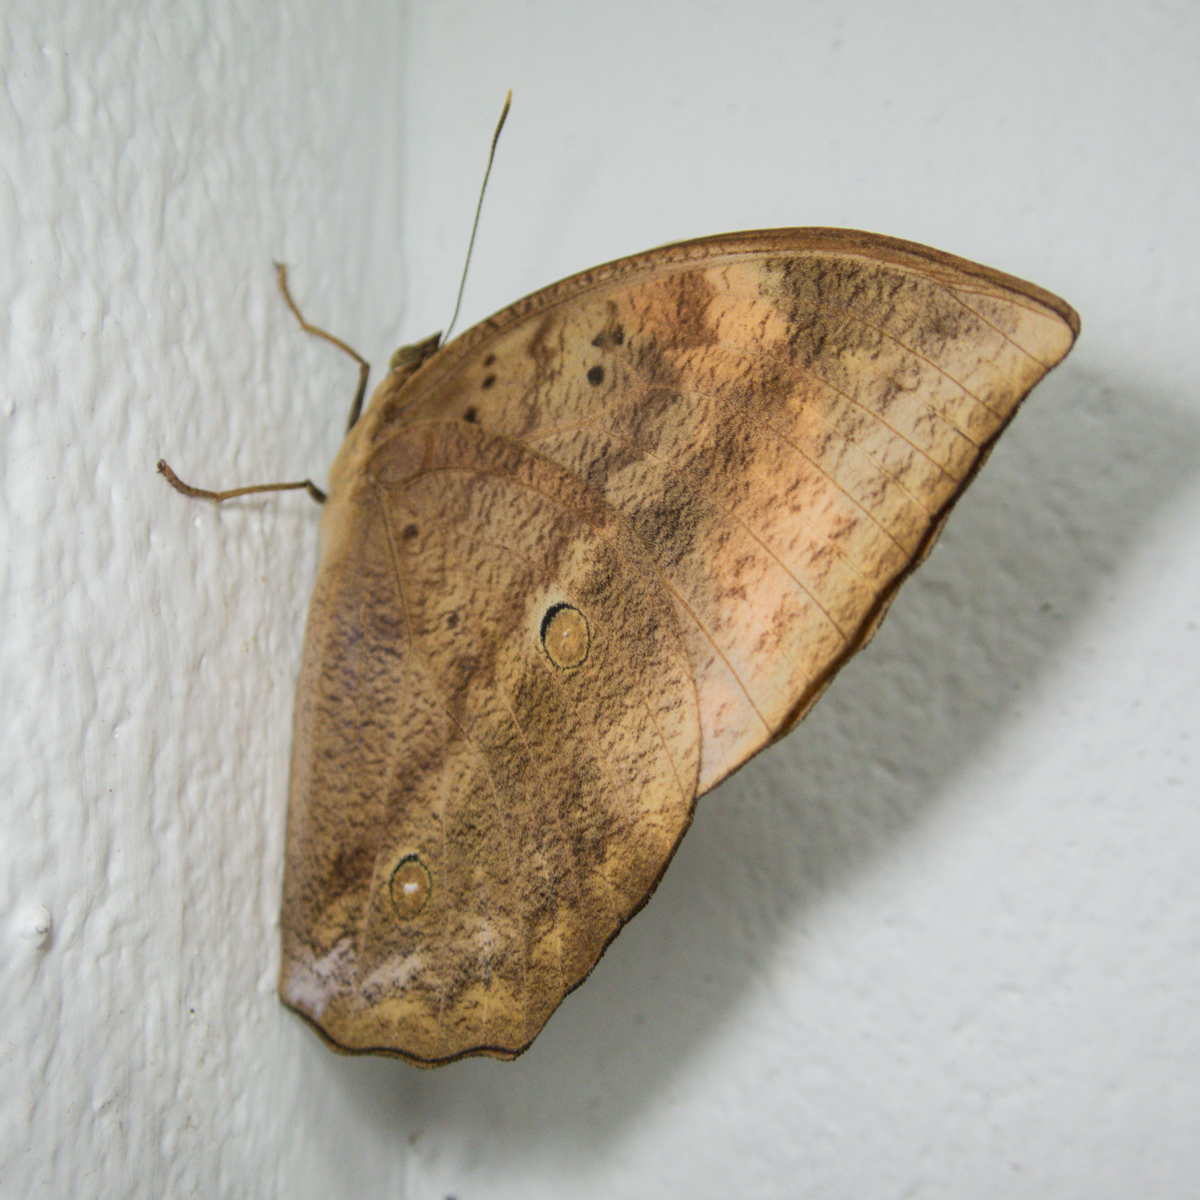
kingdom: Animalia
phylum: Arthropoda
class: Insecta
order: Lepidoptera
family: Nymphalidae
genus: Discophora
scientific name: Discophora timora
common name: Great duffer
